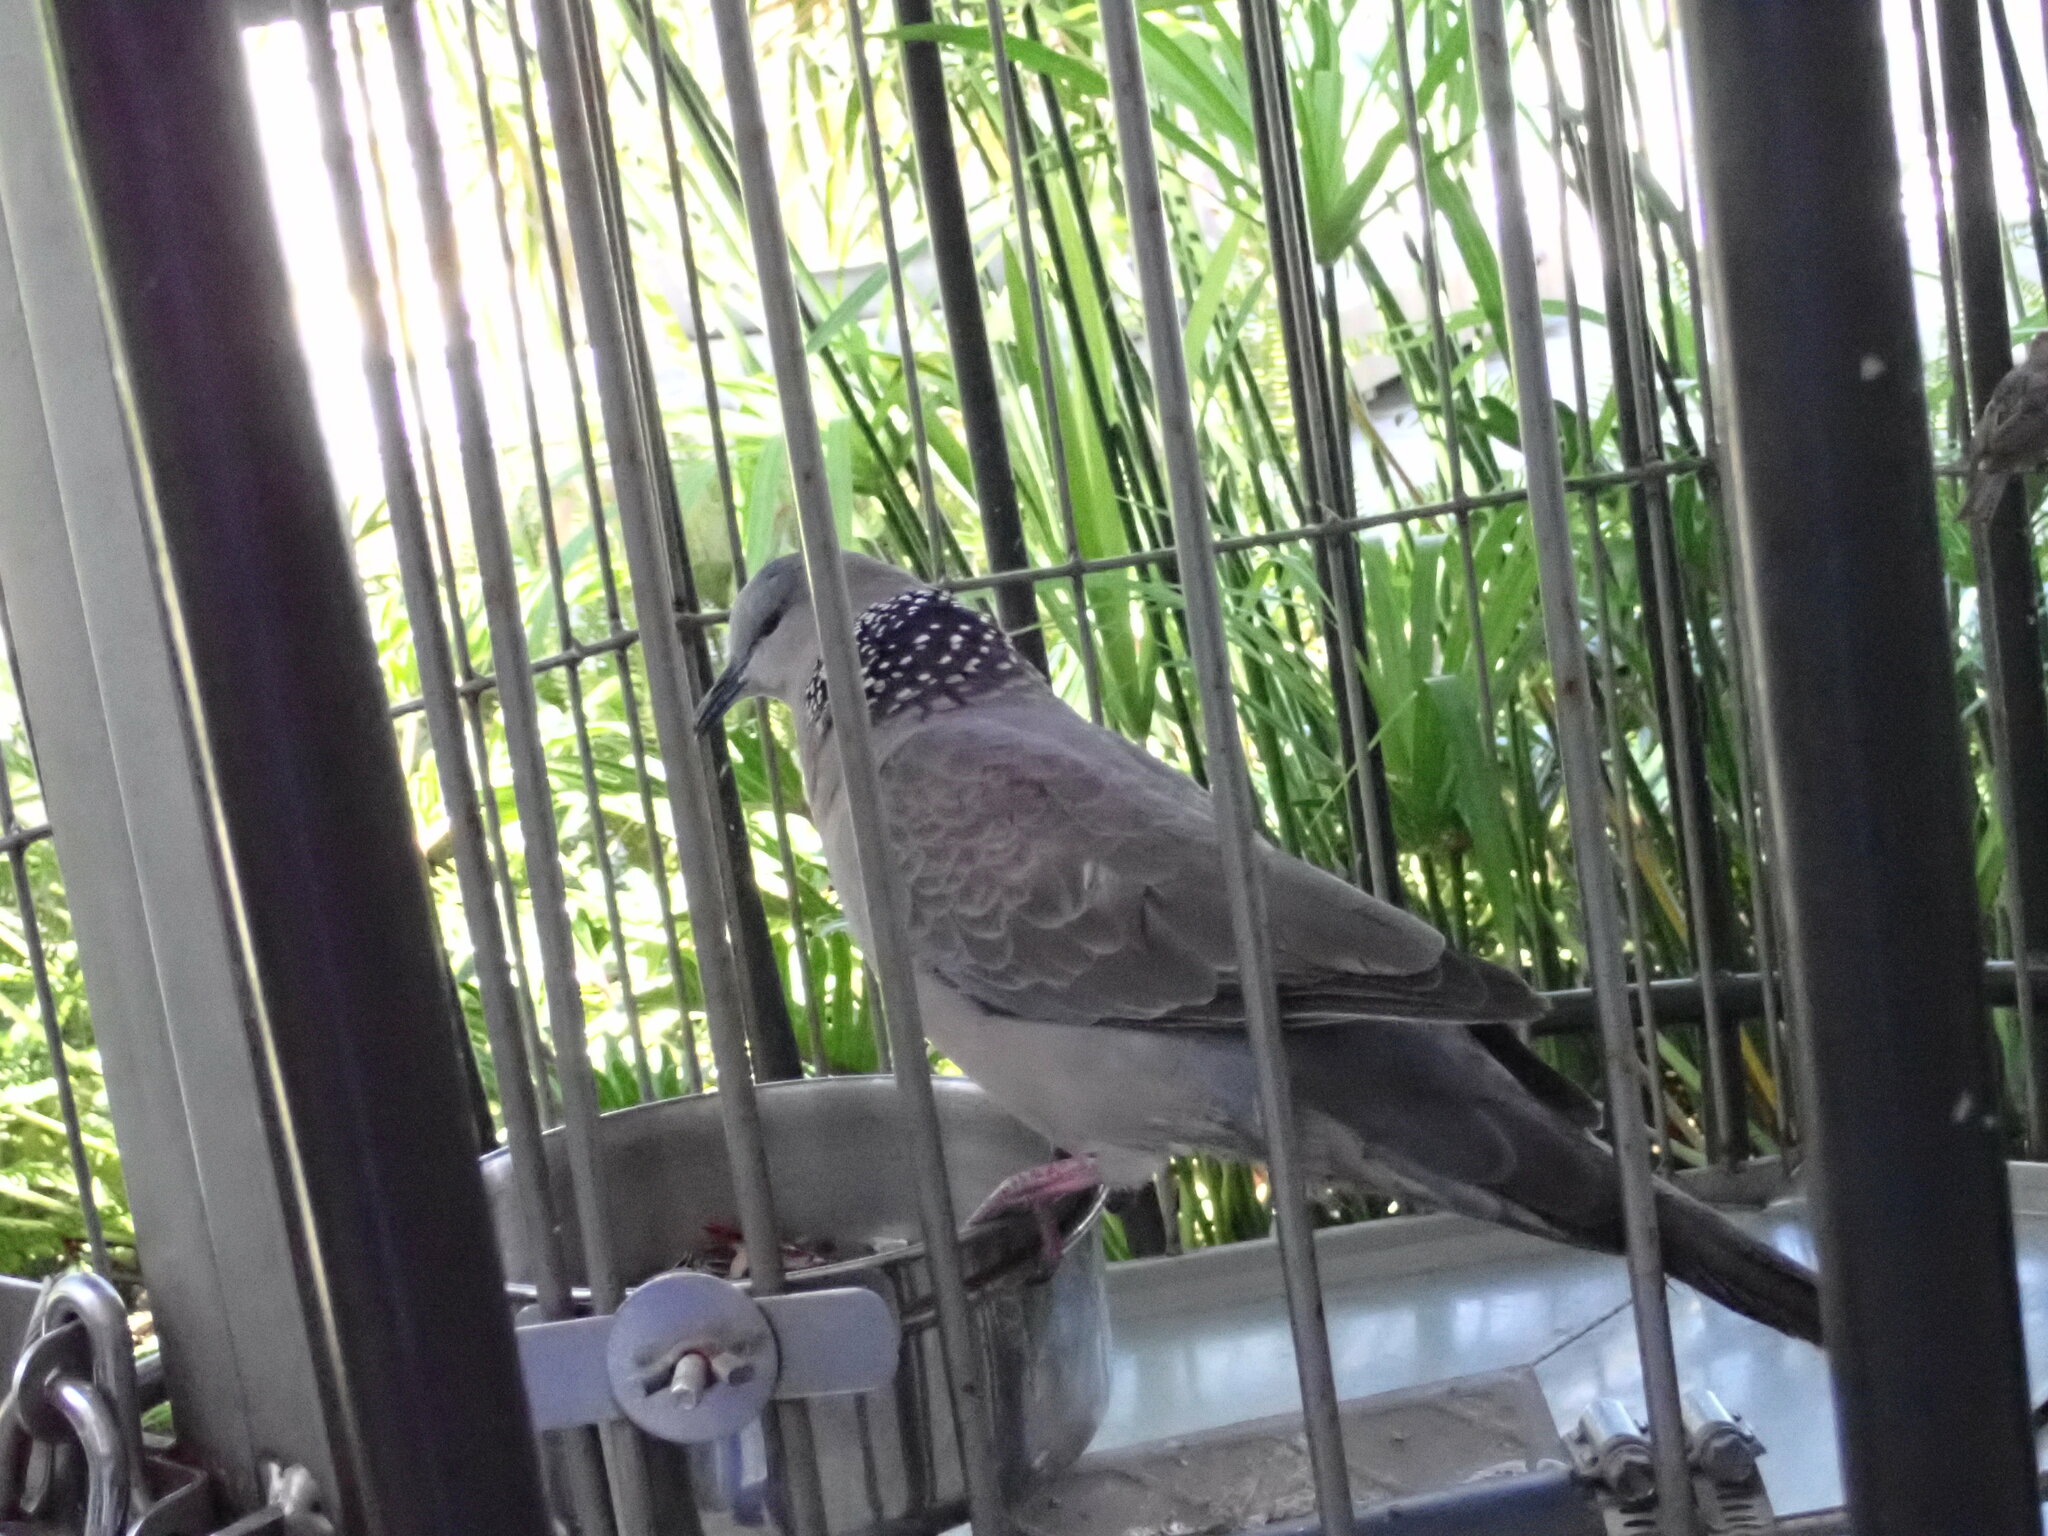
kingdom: Animalia
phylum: Chordata
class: Aves
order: Columbiformes
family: Columbidae
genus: Spilopelia
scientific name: Spilopelia chinensis
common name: Spotted dove
